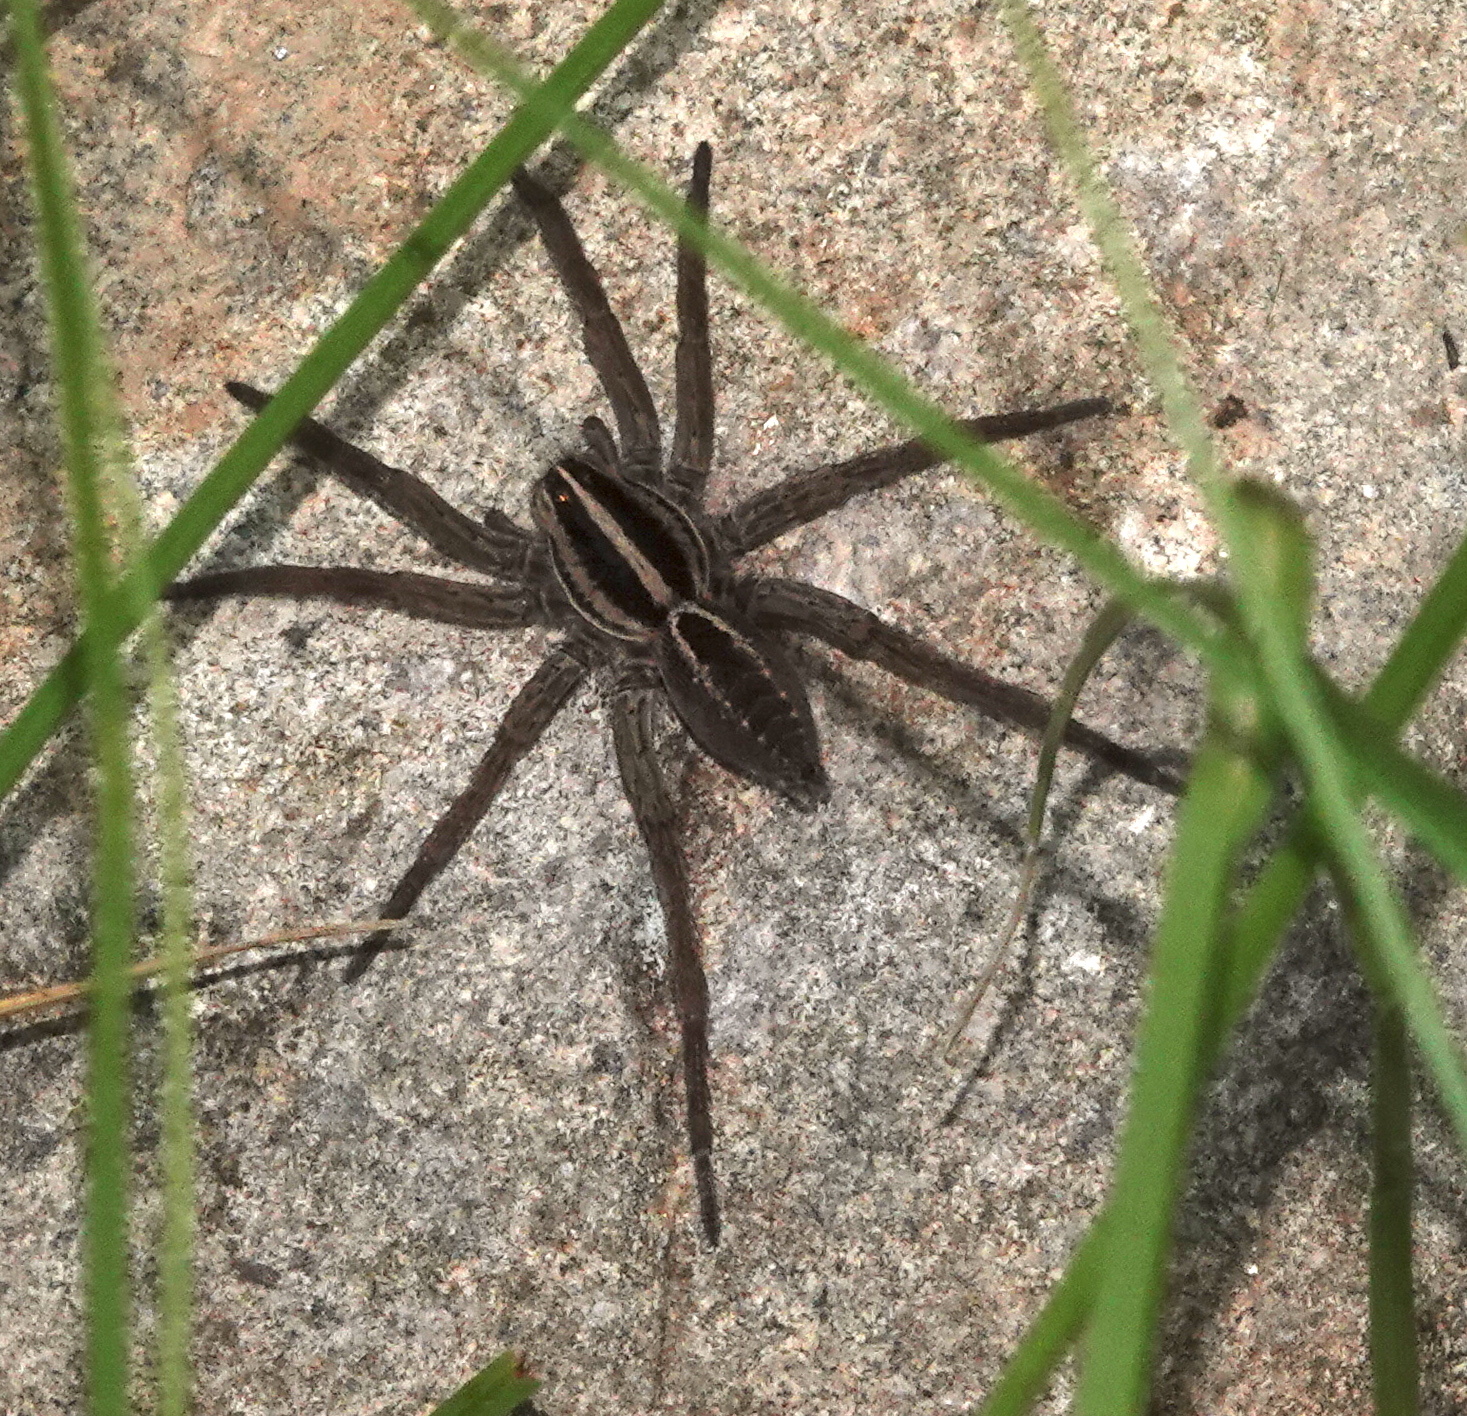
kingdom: Animalia
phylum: Arthropoda
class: Arachnida
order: Araneae
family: Lycosidae
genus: Rabidosa
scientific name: Rabidosa santrita
